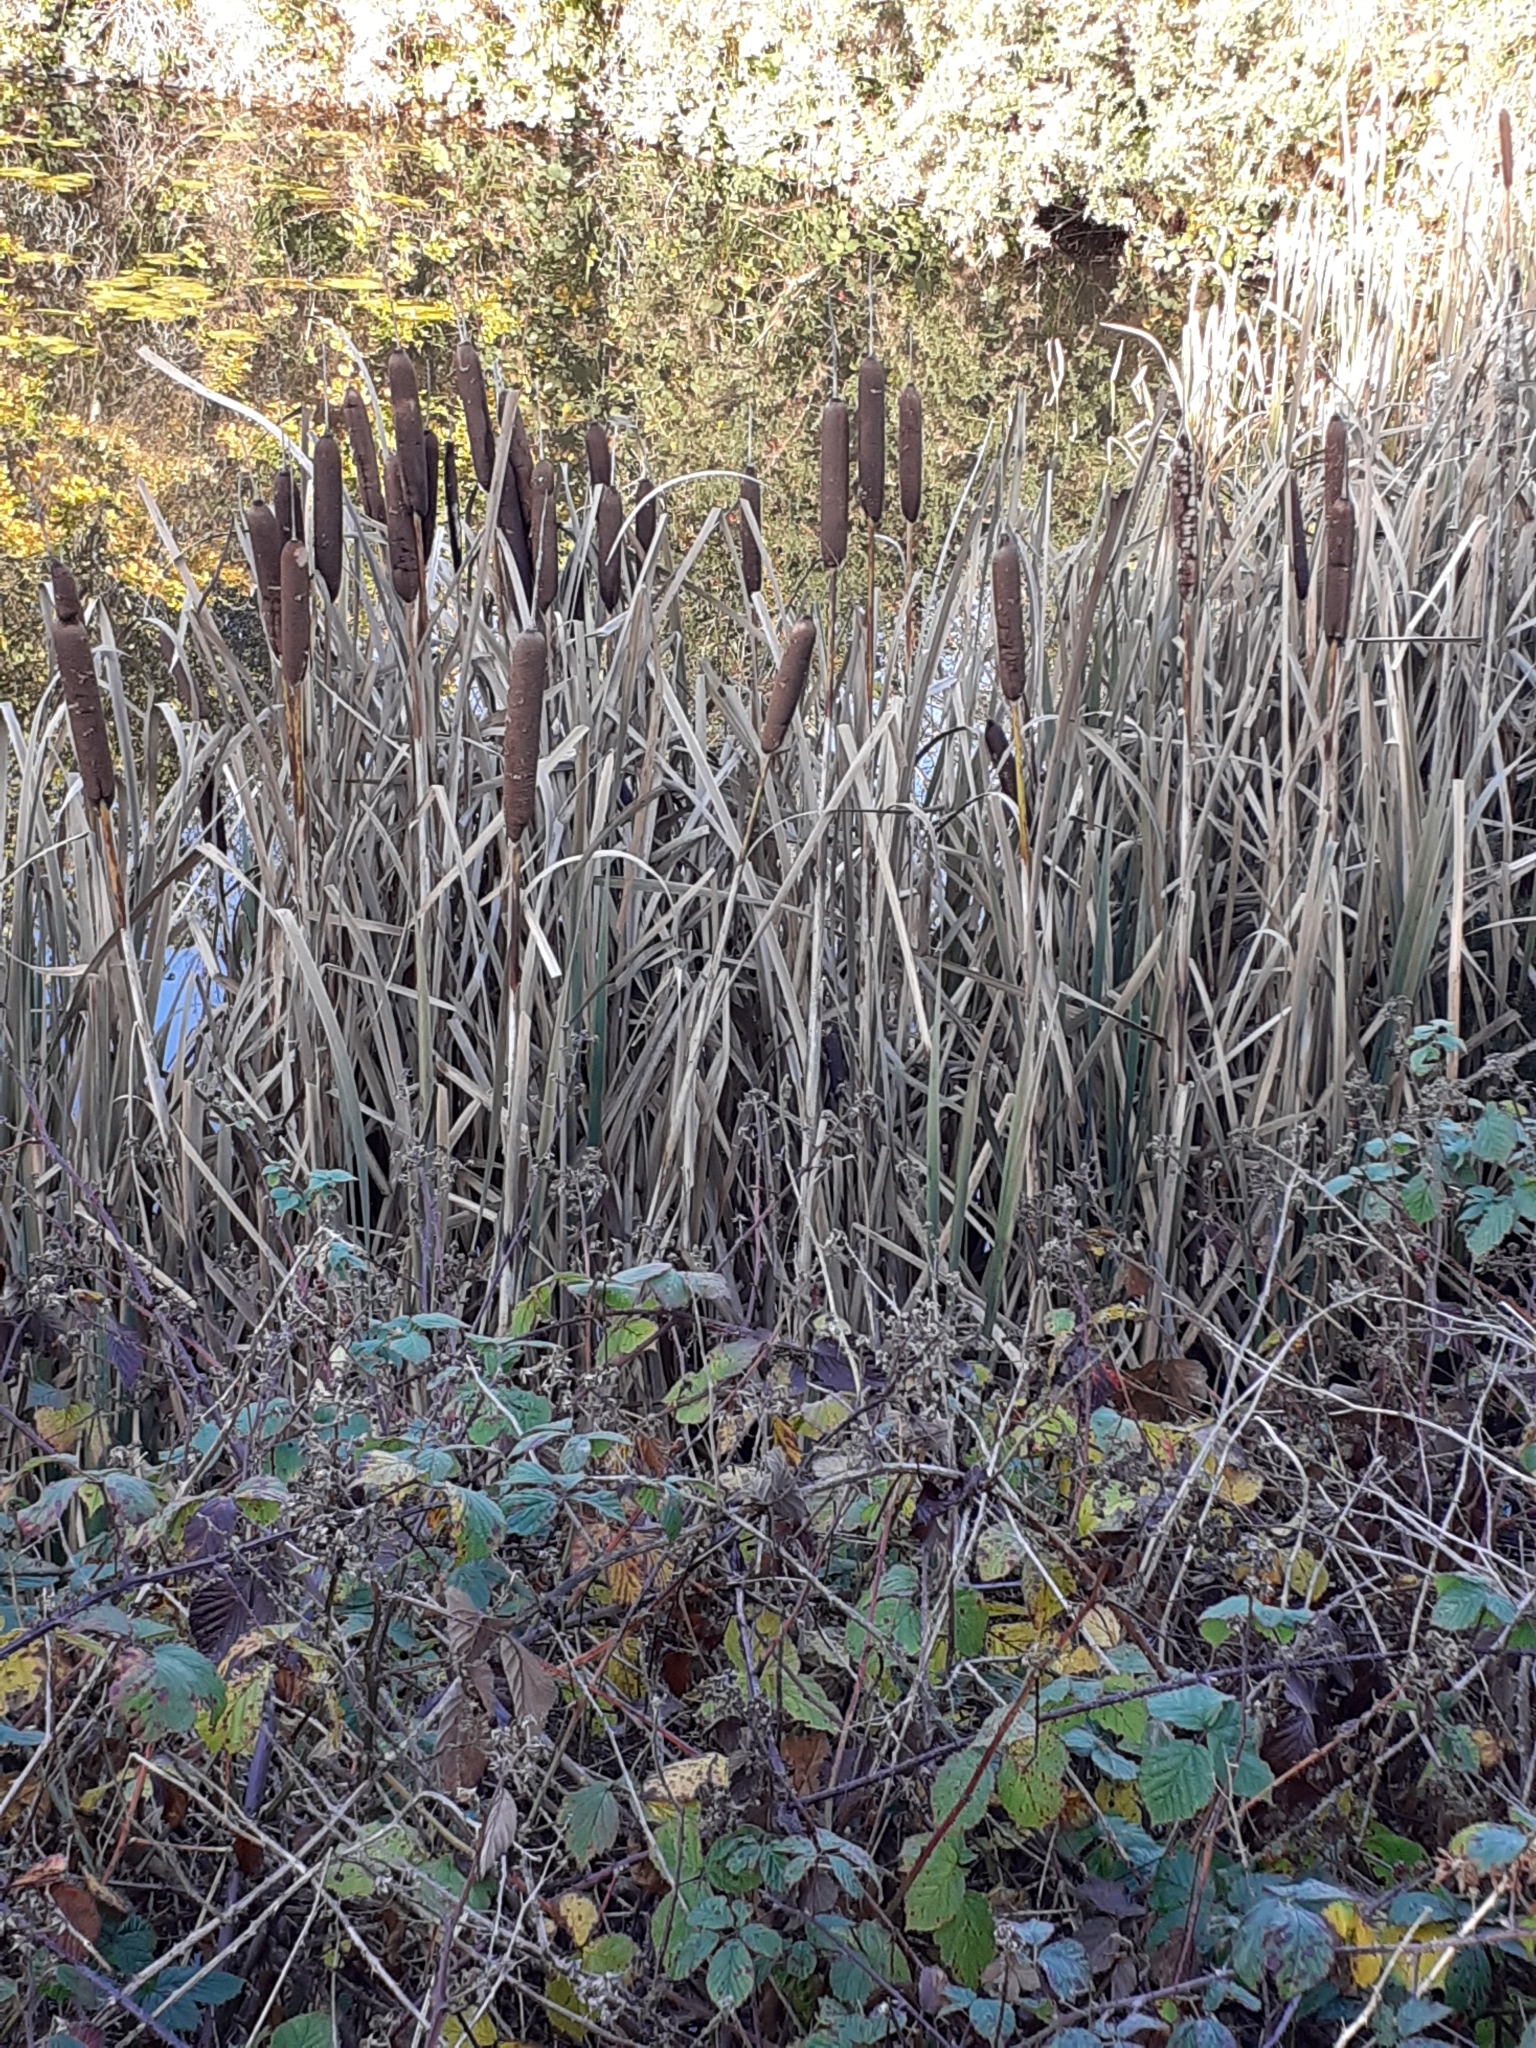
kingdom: Plantae
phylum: Tracheophyta
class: Liliopsida
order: Poales
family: Typhaceae
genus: Typha
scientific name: Typha latifolia
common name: Broadleaf cattail
